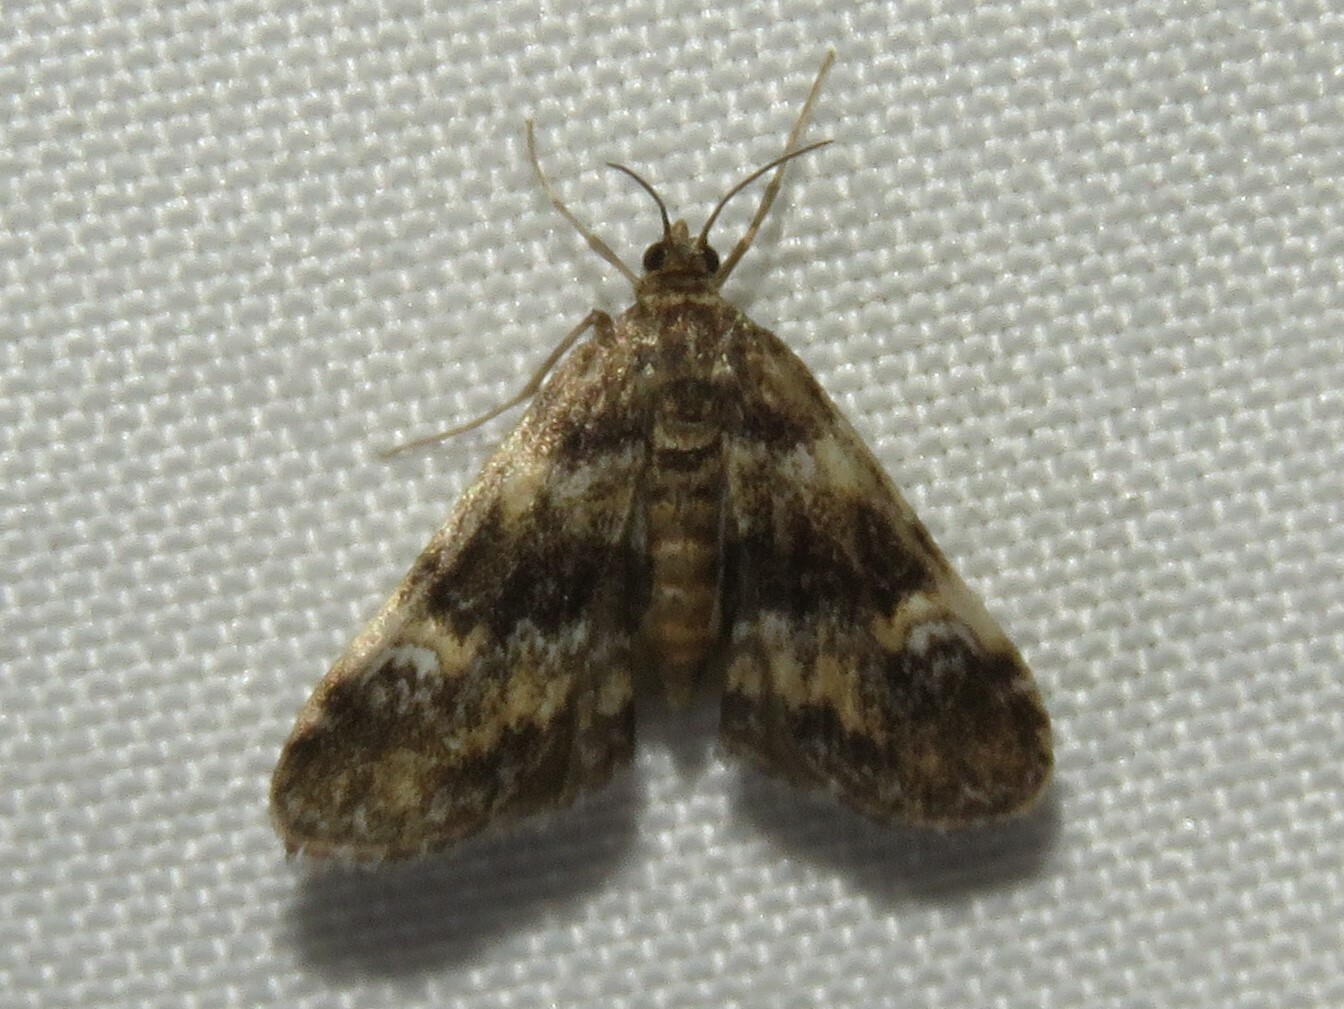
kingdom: Animalia
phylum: Arthropoda
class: Insecta
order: Lepidoptera
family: Crambidae
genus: Elophila
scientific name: Elophila obliteralis
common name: Waterlily leafcutter moth
